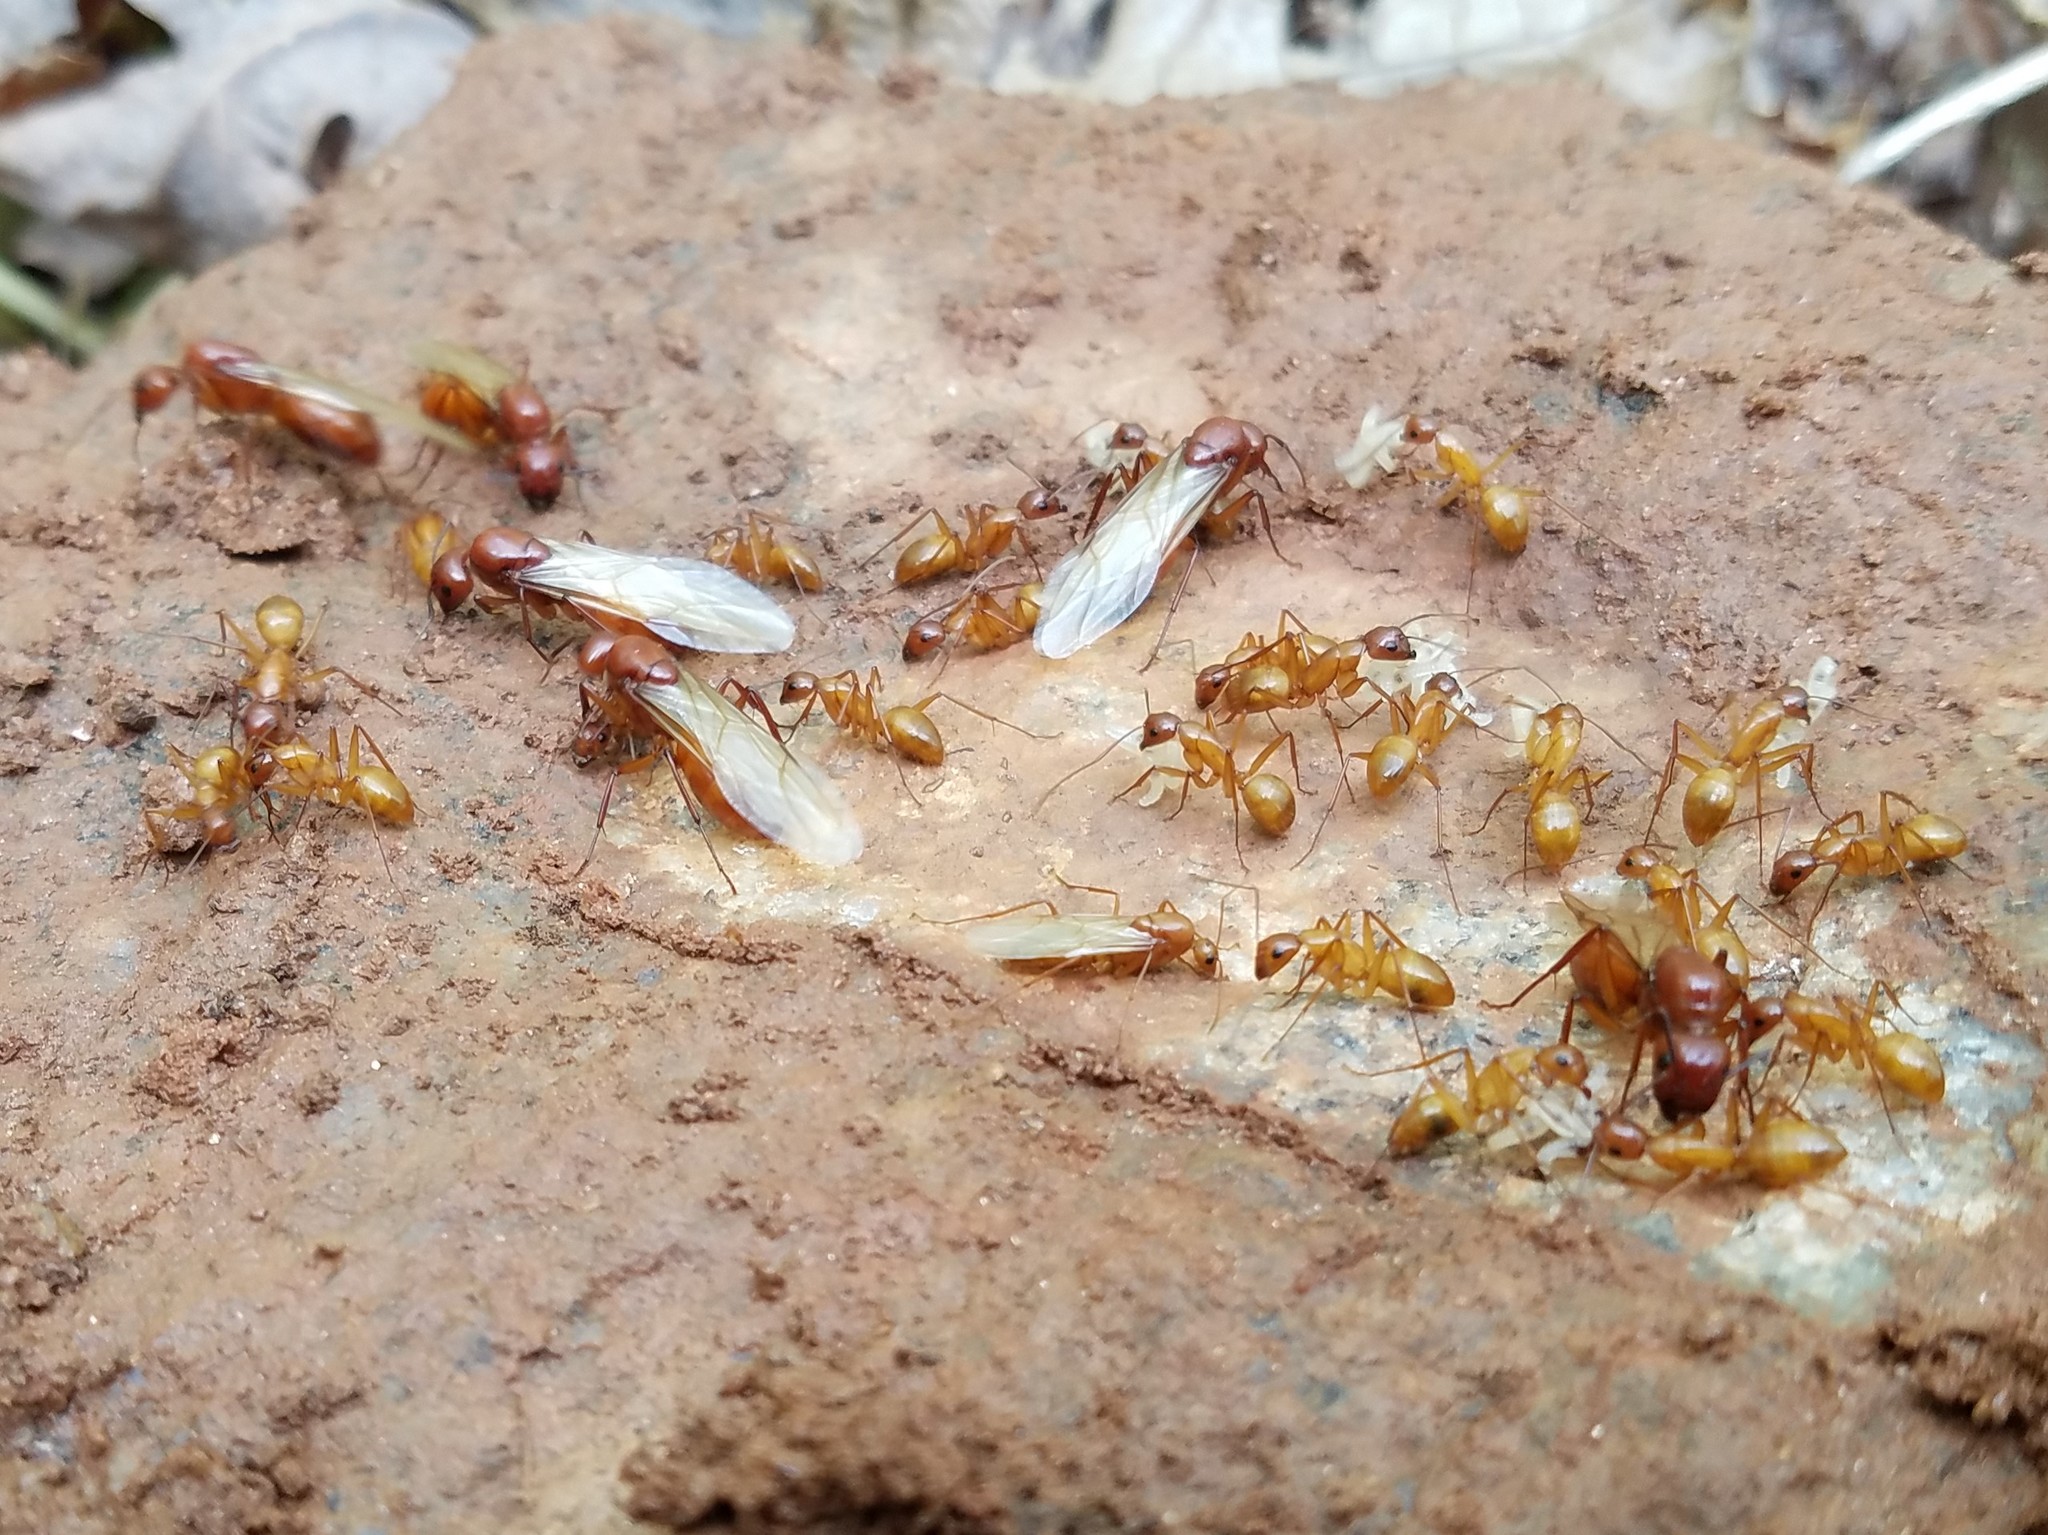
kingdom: Animalia
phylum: Arthropoda
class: Insecta
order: Hymenoptera
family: Formicidae
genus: Camponotus
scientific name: Camponotus castaneus
